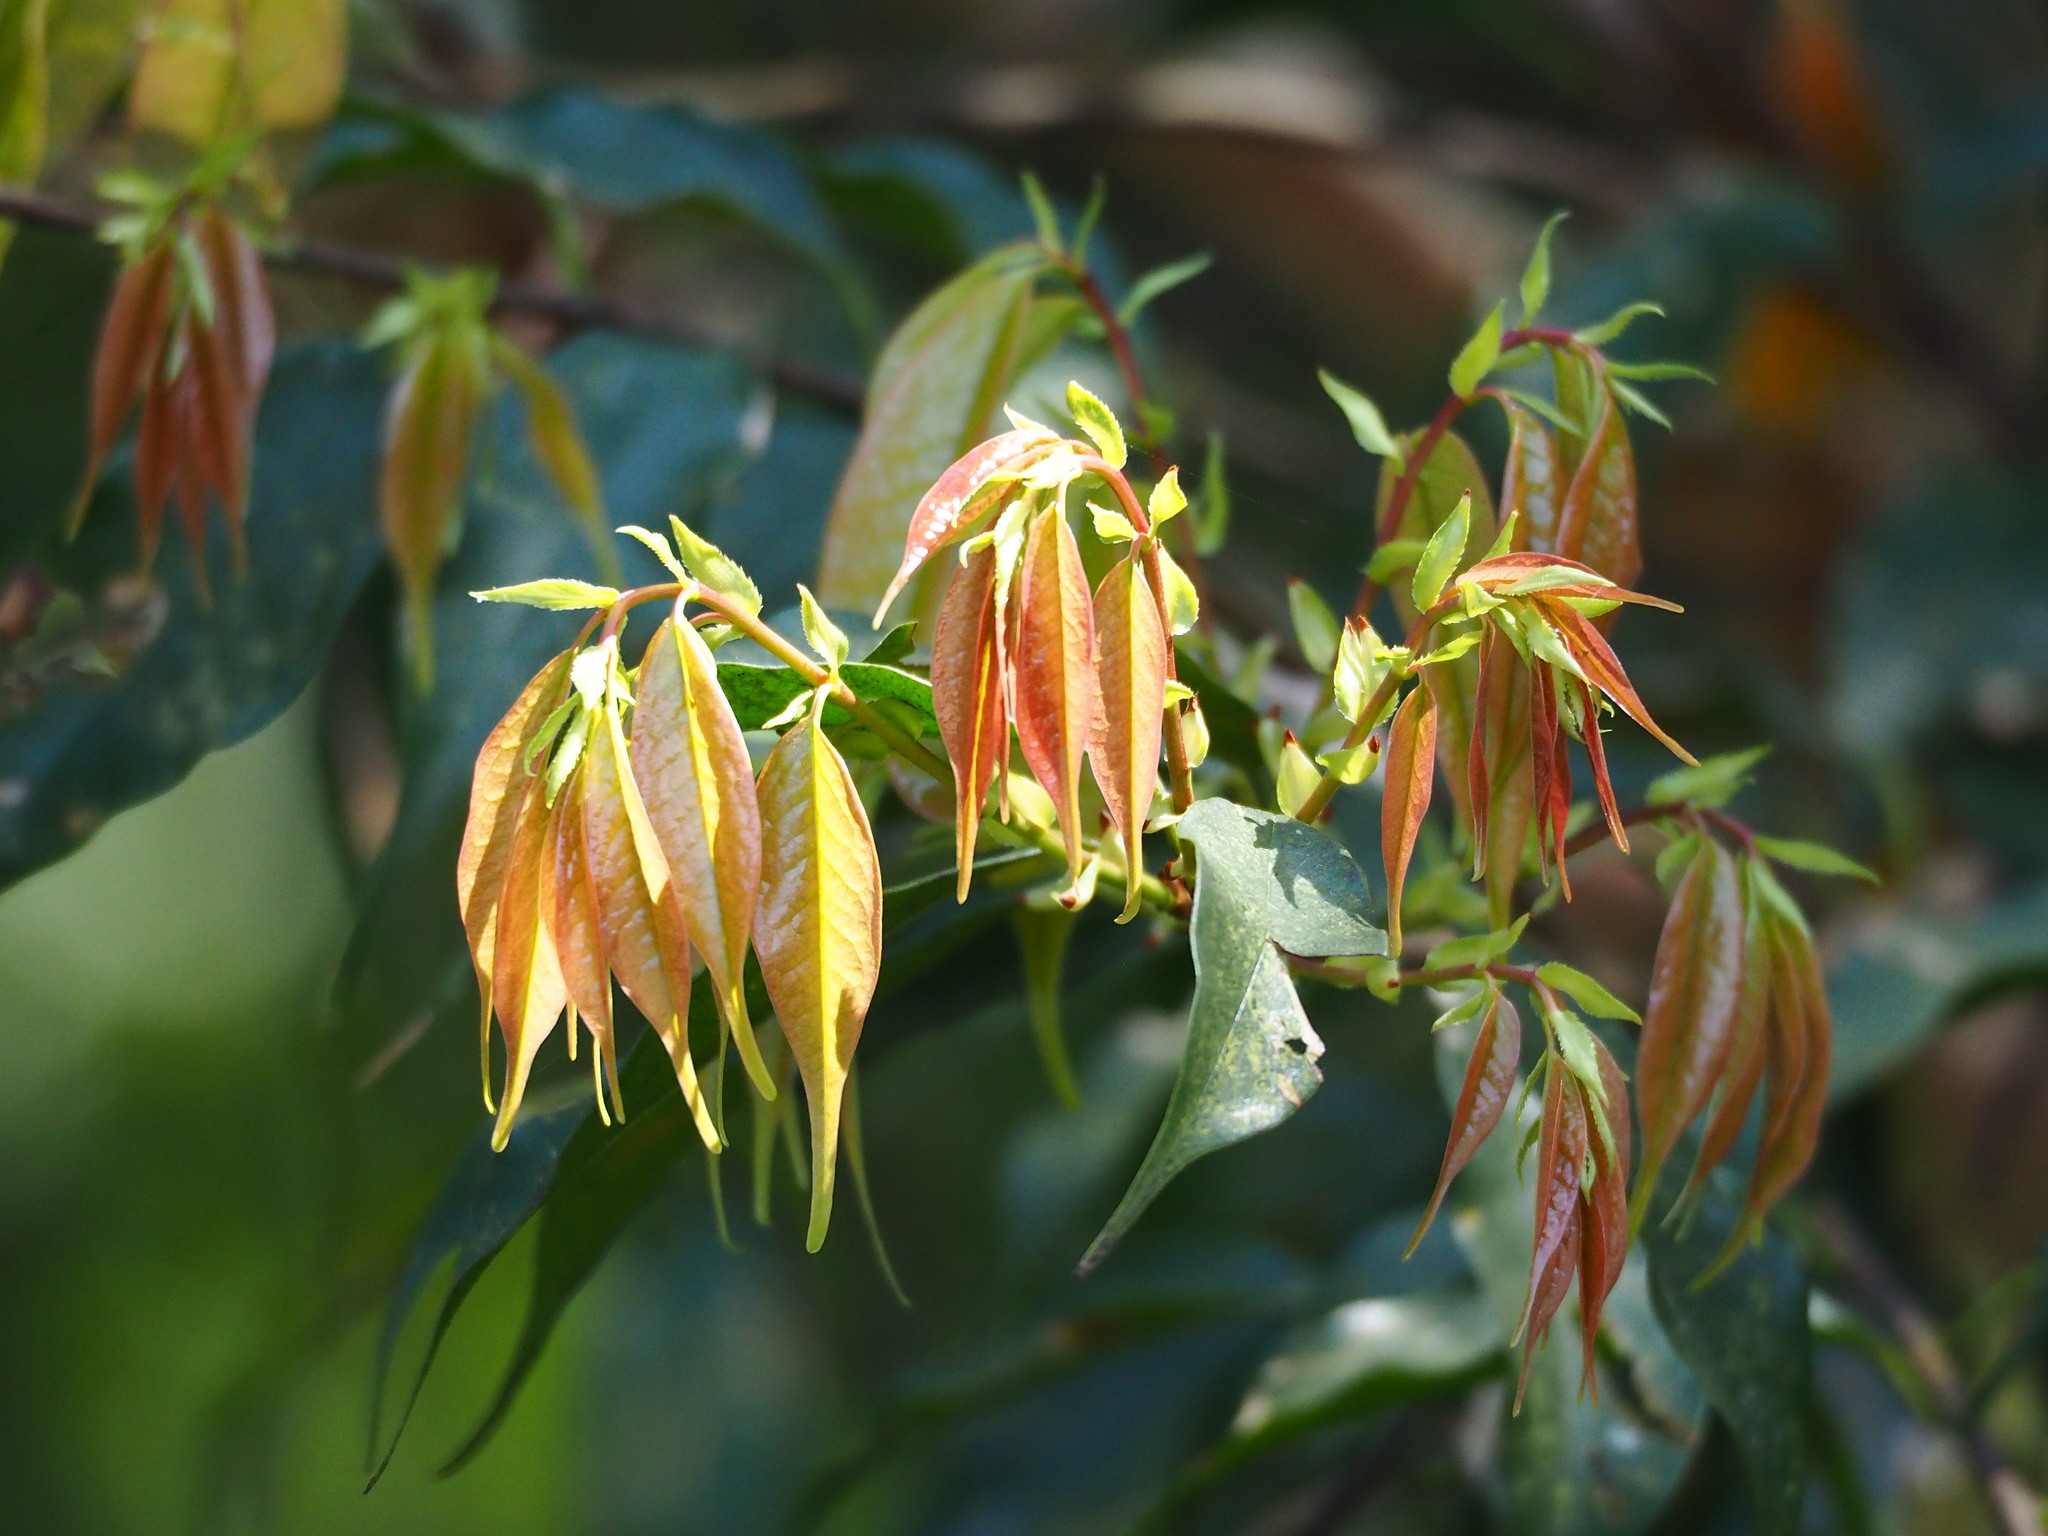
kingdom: Plantae
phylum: Tracheophyta
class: Magnoliopsida
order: Rosales
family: Rosaceae
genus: Prunus
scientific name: Prunus phaeosticta
